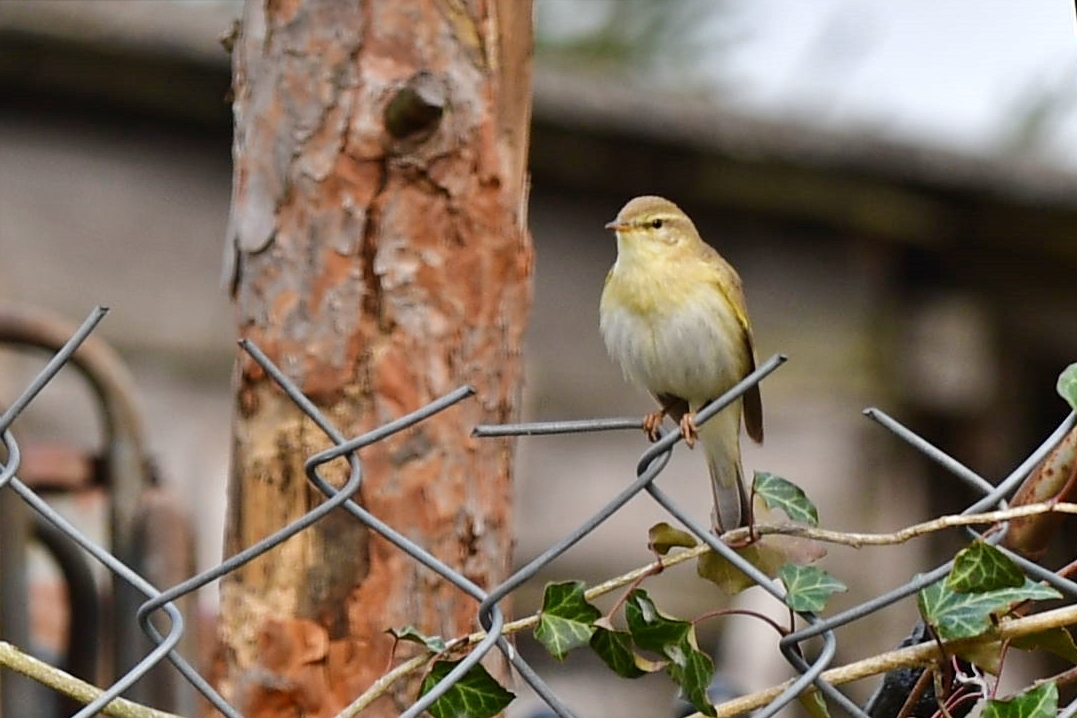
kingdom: Animalia
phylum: Chordata
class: Aves
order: Passeriformes
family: Phylloscopidae
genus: Phylloscopus
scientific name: Phylloscopus trochilus
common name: Willow warbler
